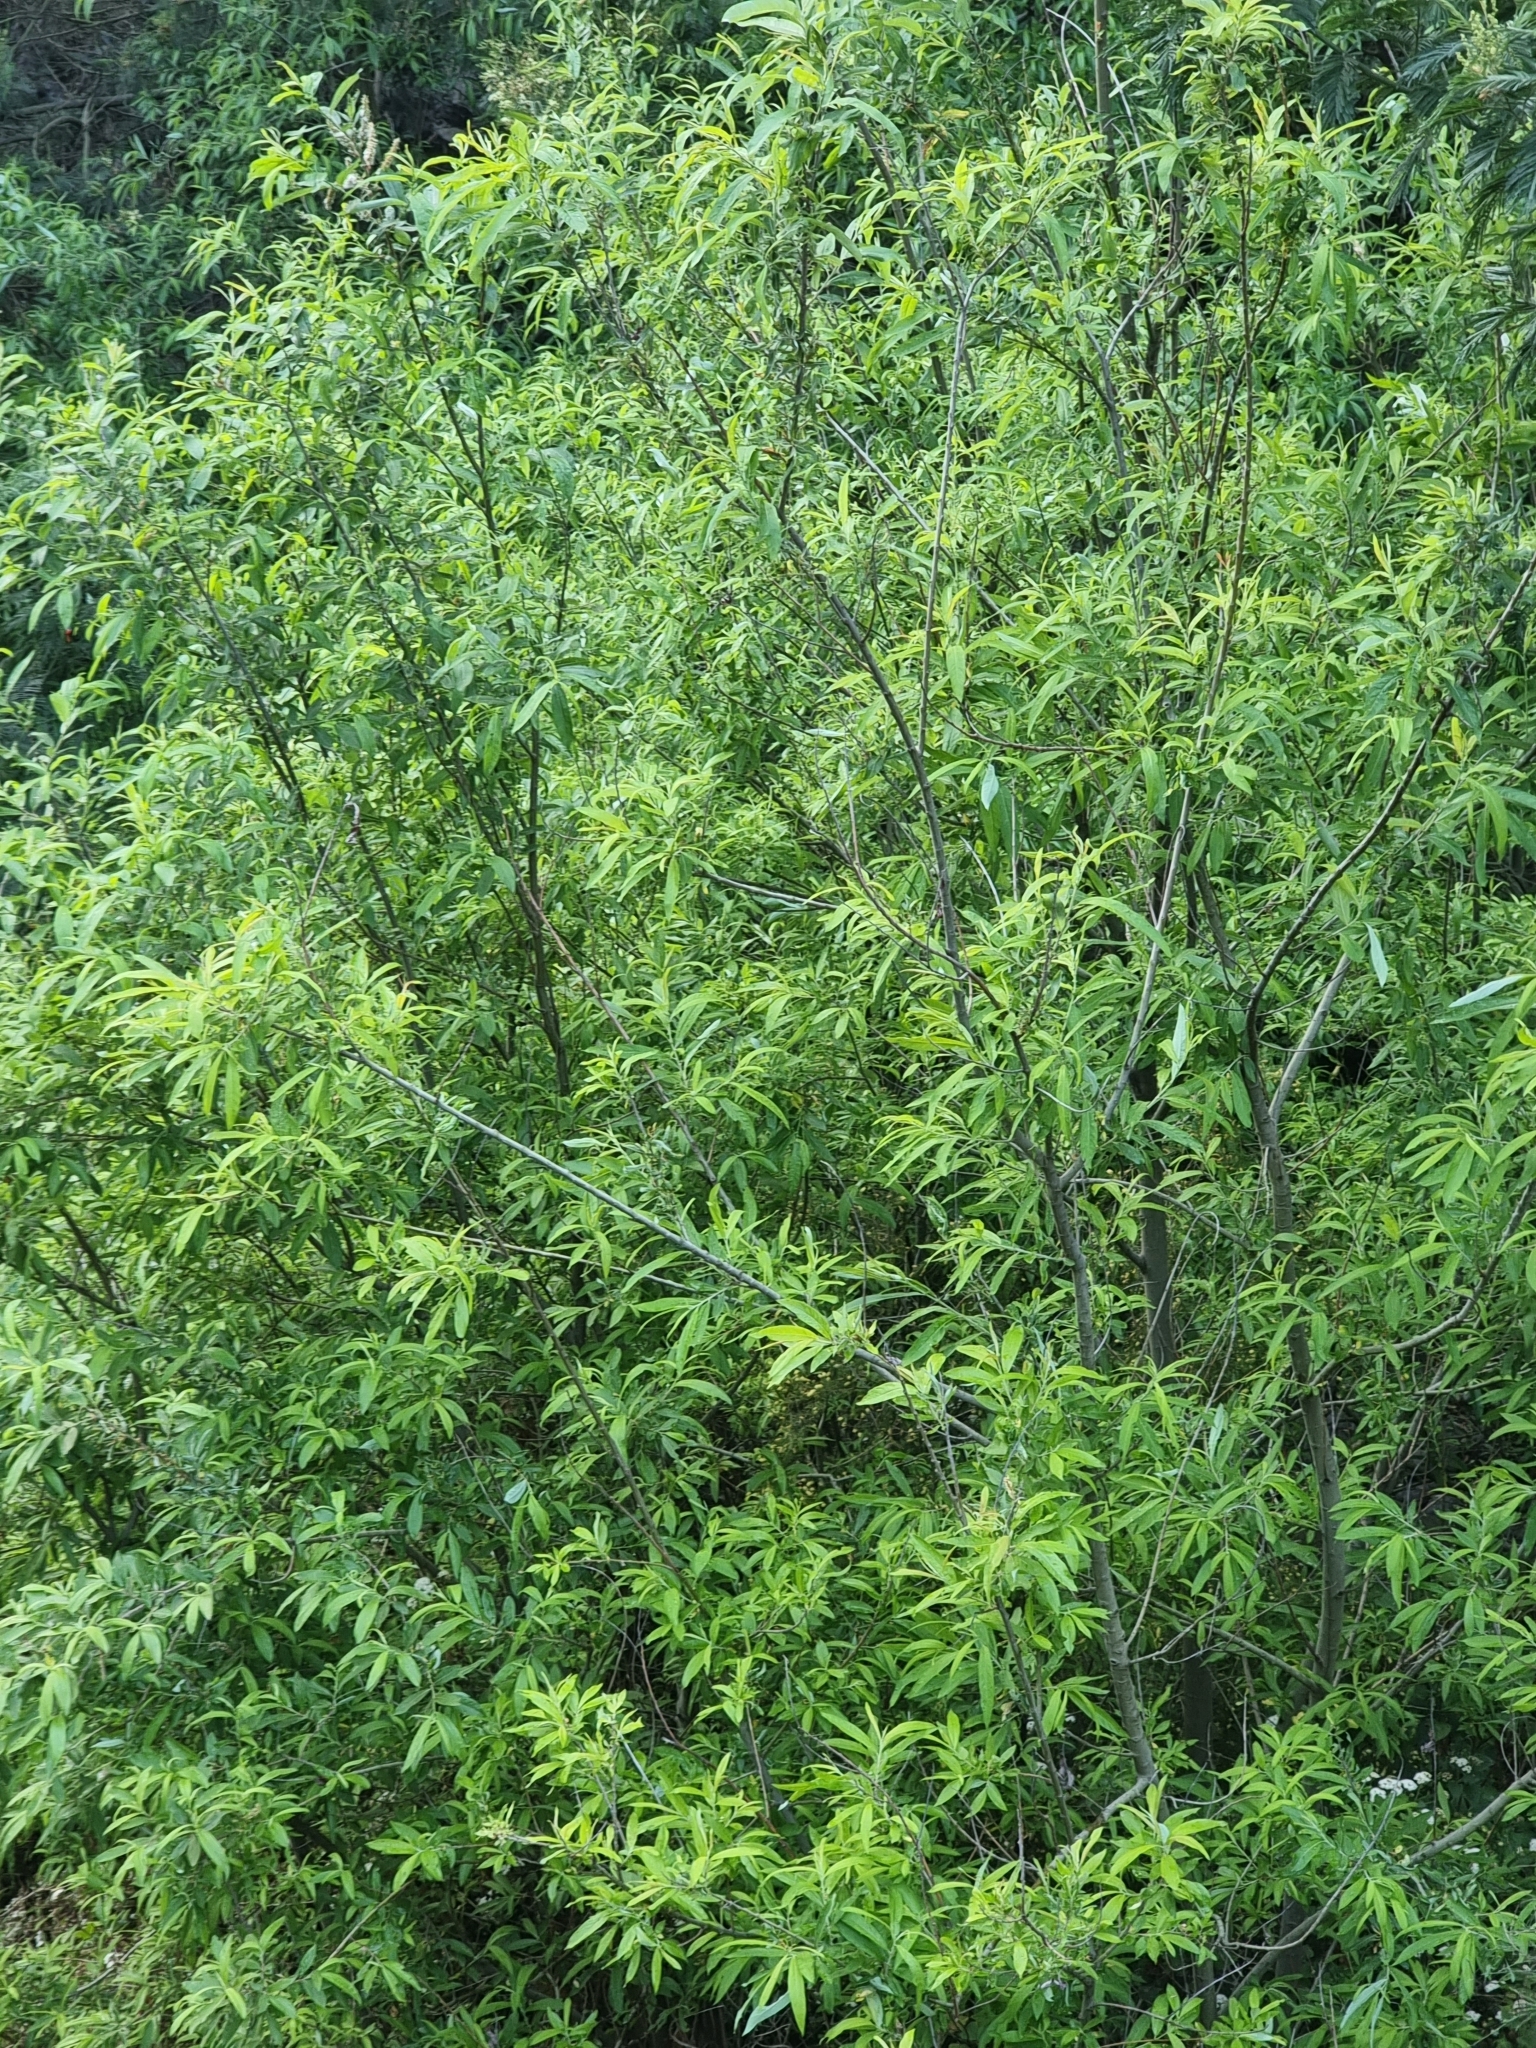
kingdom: Plantae
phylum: Tracheophyta
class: Magnoliopsida
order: Malpighiales
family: Salicaceae
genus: Salix
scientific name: Salix canariensis
